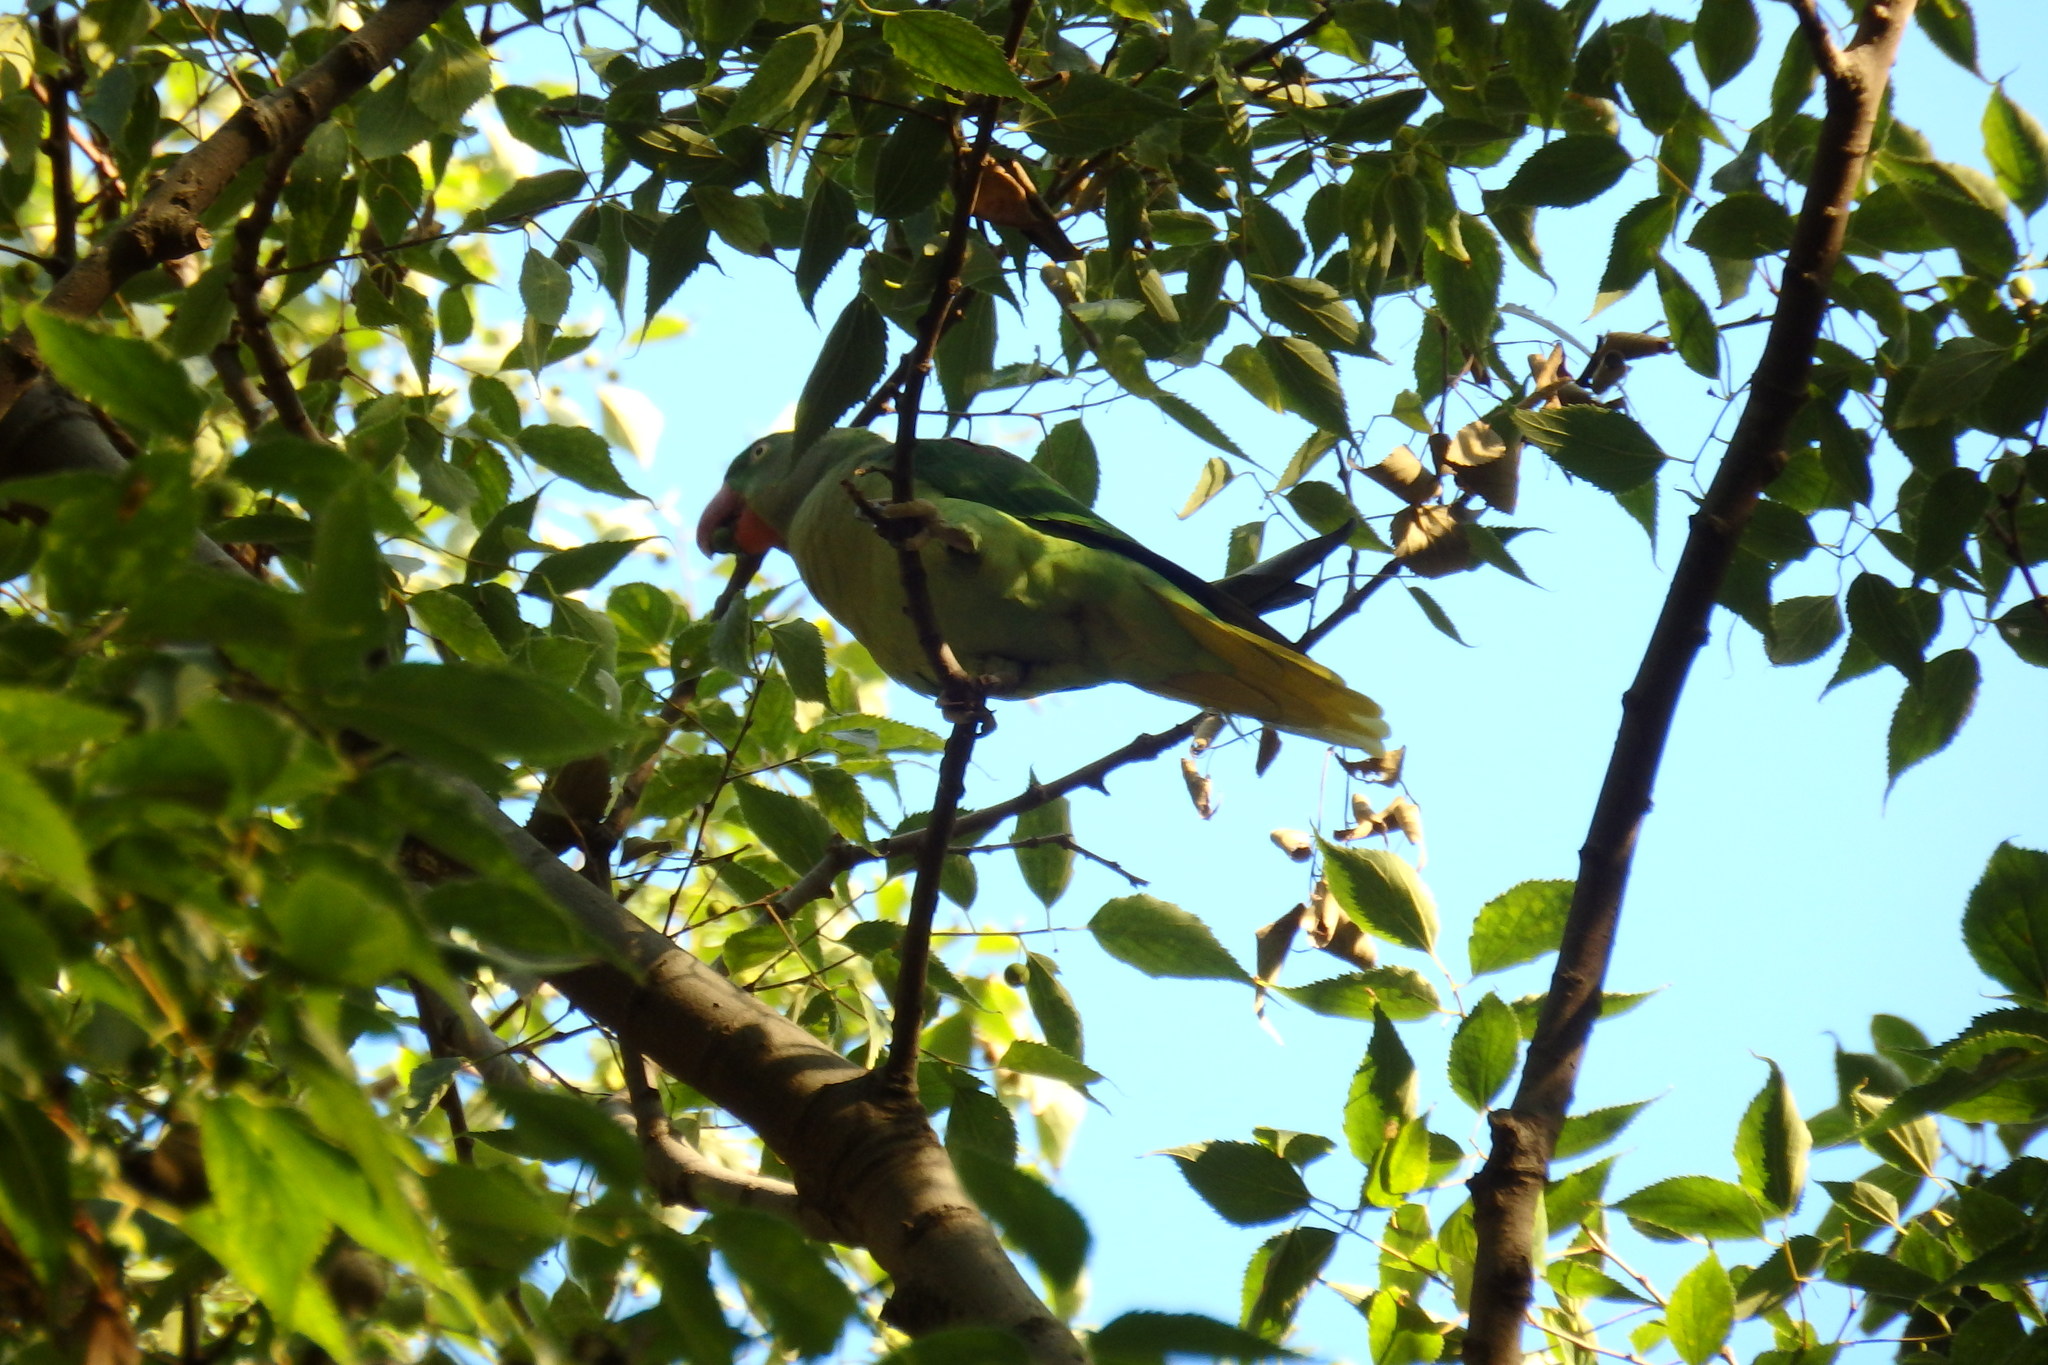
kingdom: Animalia
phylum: Chordata
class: Aves
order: Psittaciformes
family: Psittacidae
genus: Psittacula
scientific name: Psittacula eupatria
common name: Alexandrine parakeet
